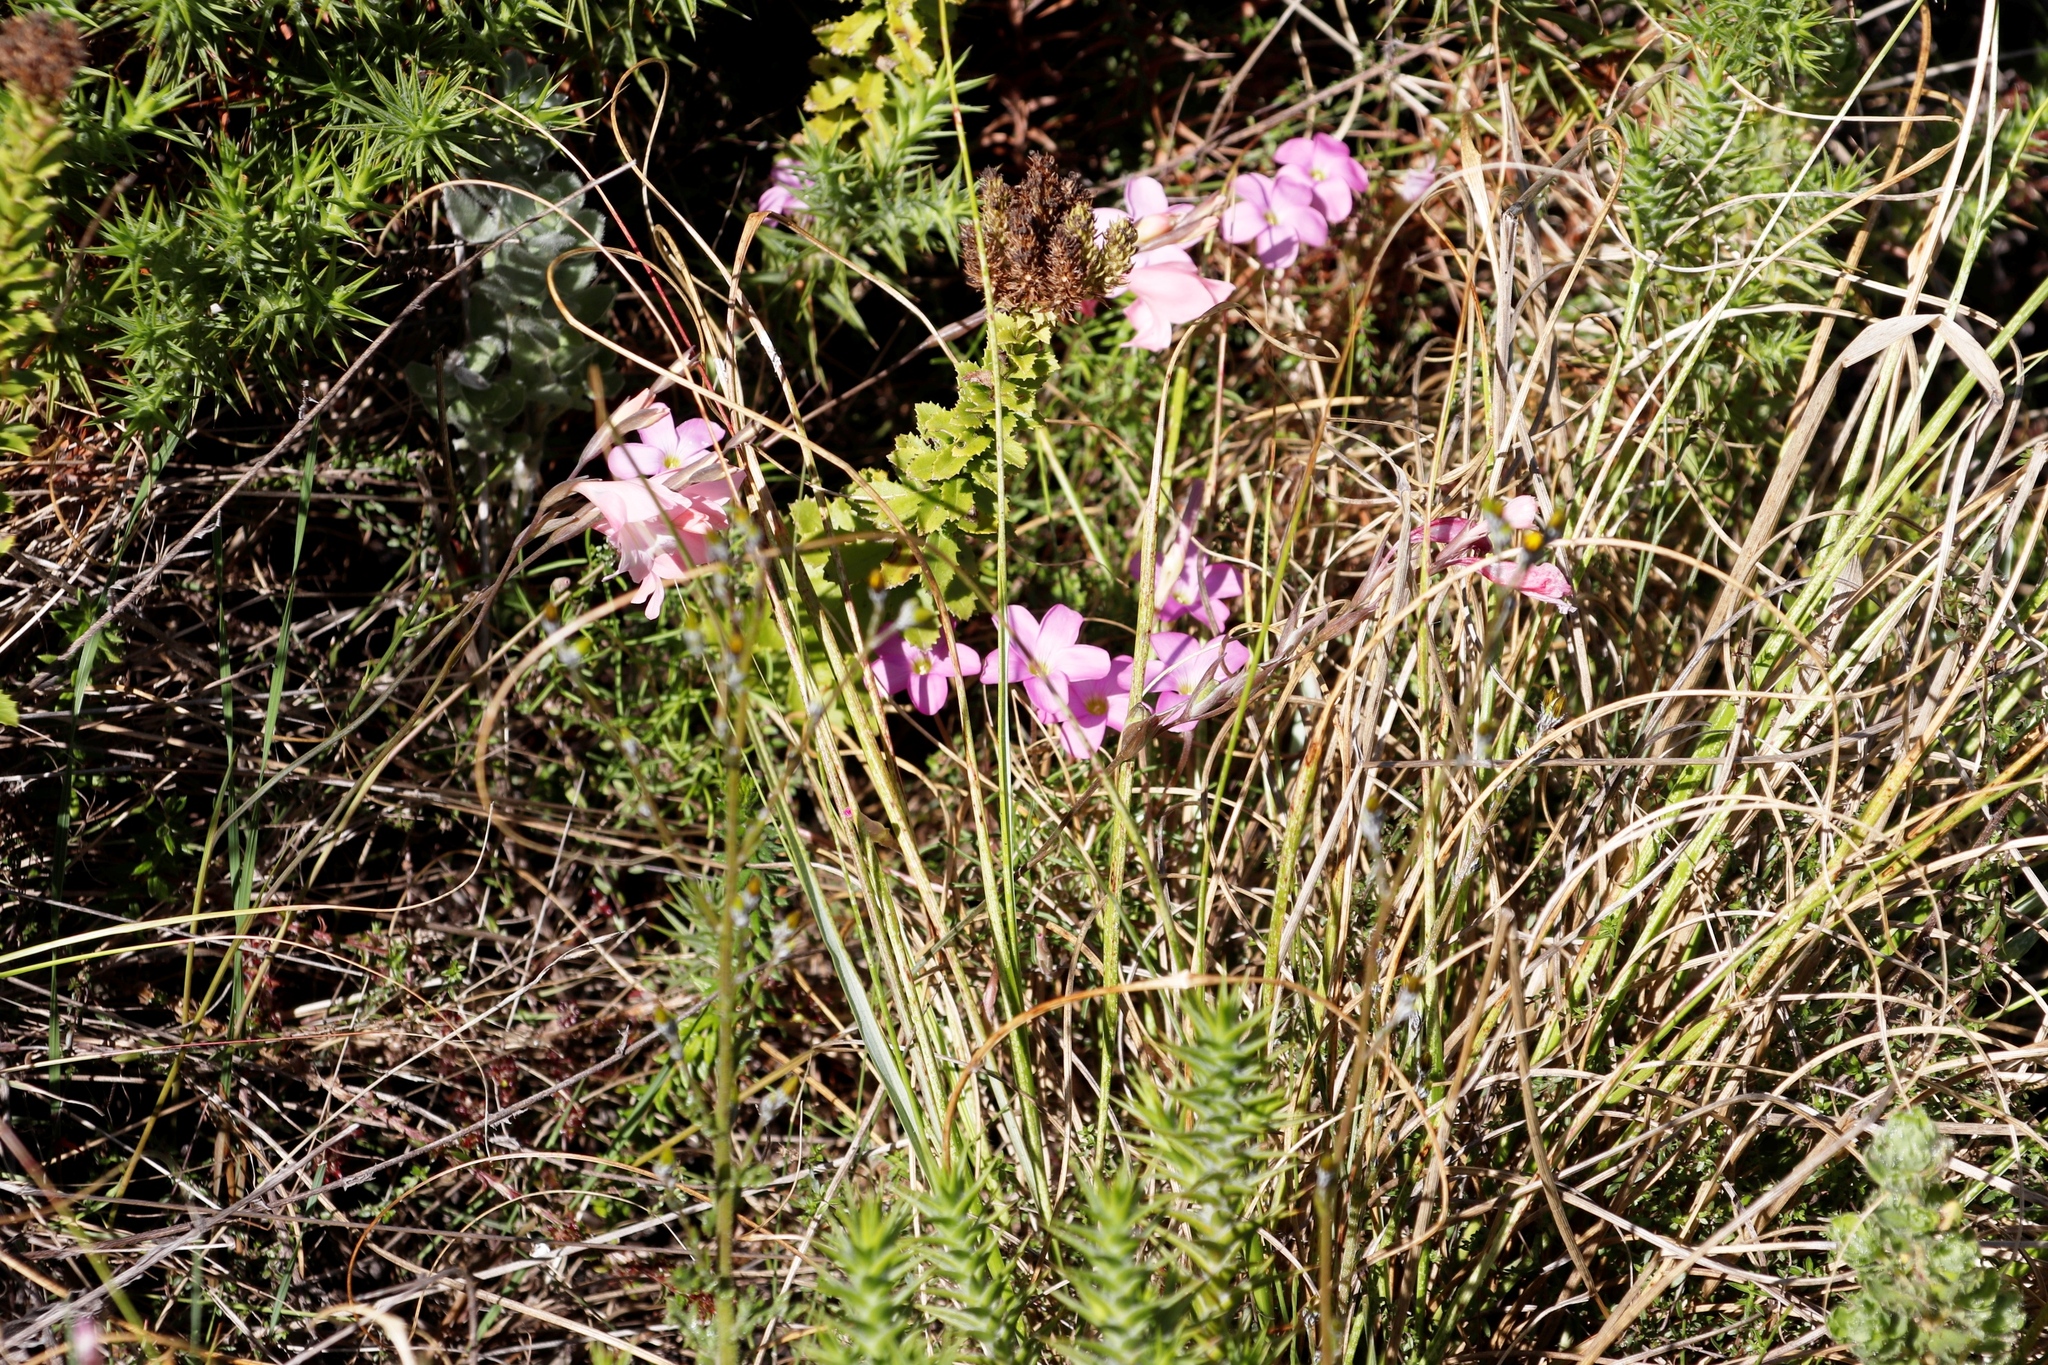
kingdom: Plantae
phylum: Tracheophyta
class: Magnoliopsida
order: Oxalidales
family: Oxalidaceae
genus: Oxalis
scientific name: Oxalis polyphylla
